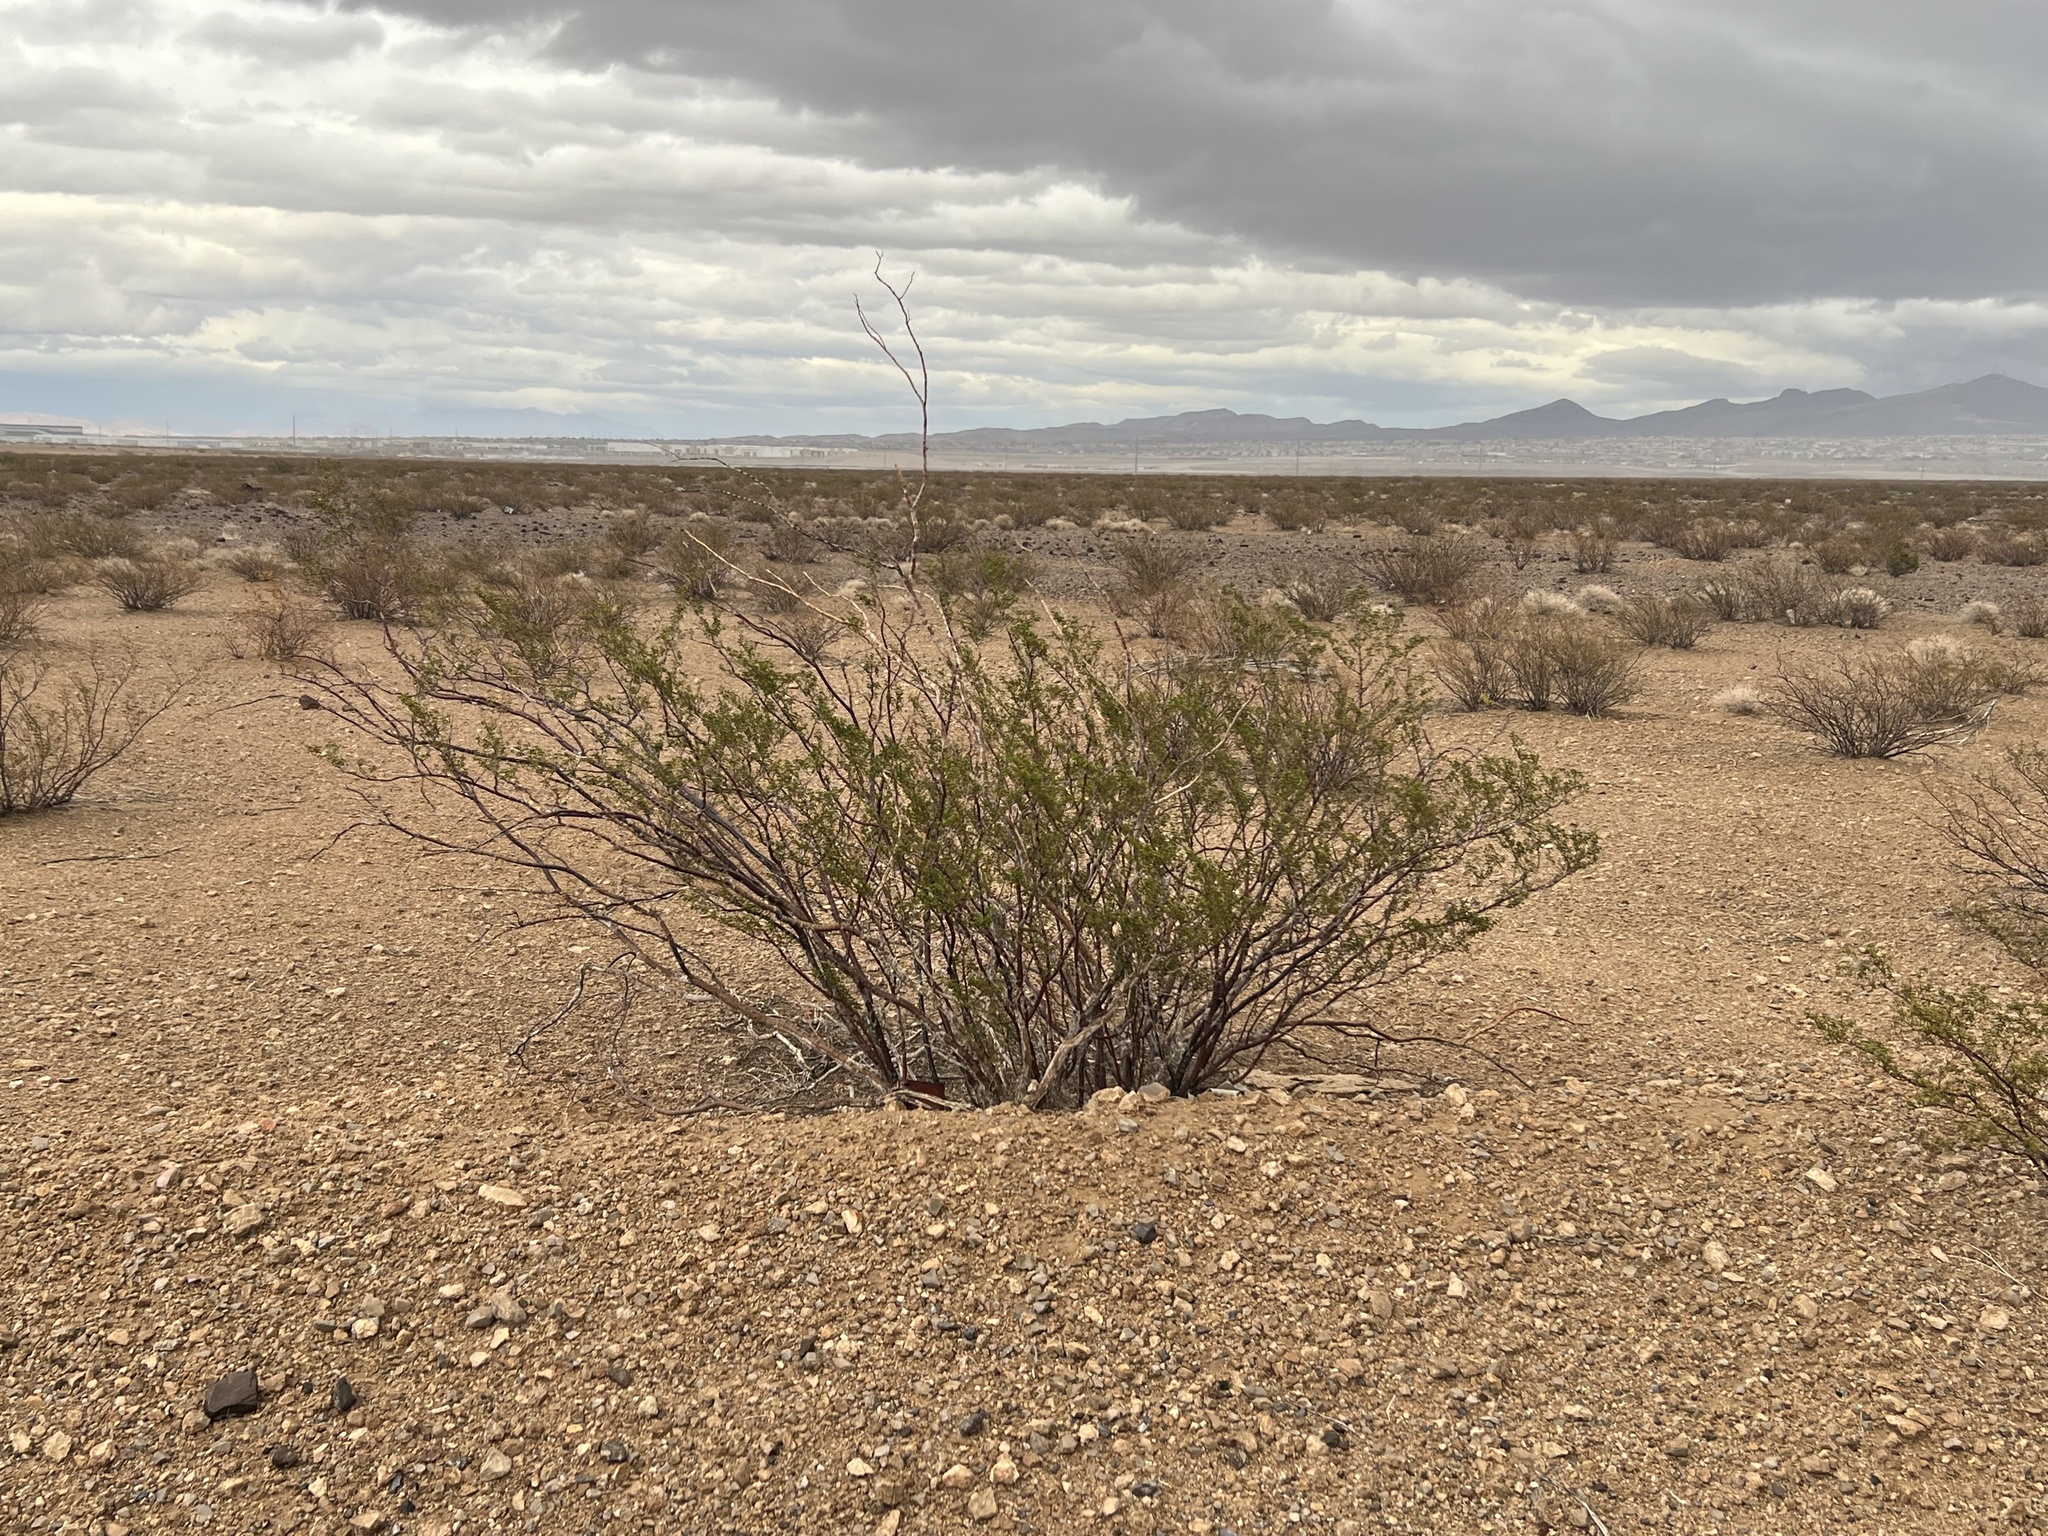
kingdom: Plantae
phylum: Tracheophyta
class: Magnoliopsida
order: Zygophyllales
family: Zygophyllaceae
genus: Larrea
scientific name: Larrea tridentata
